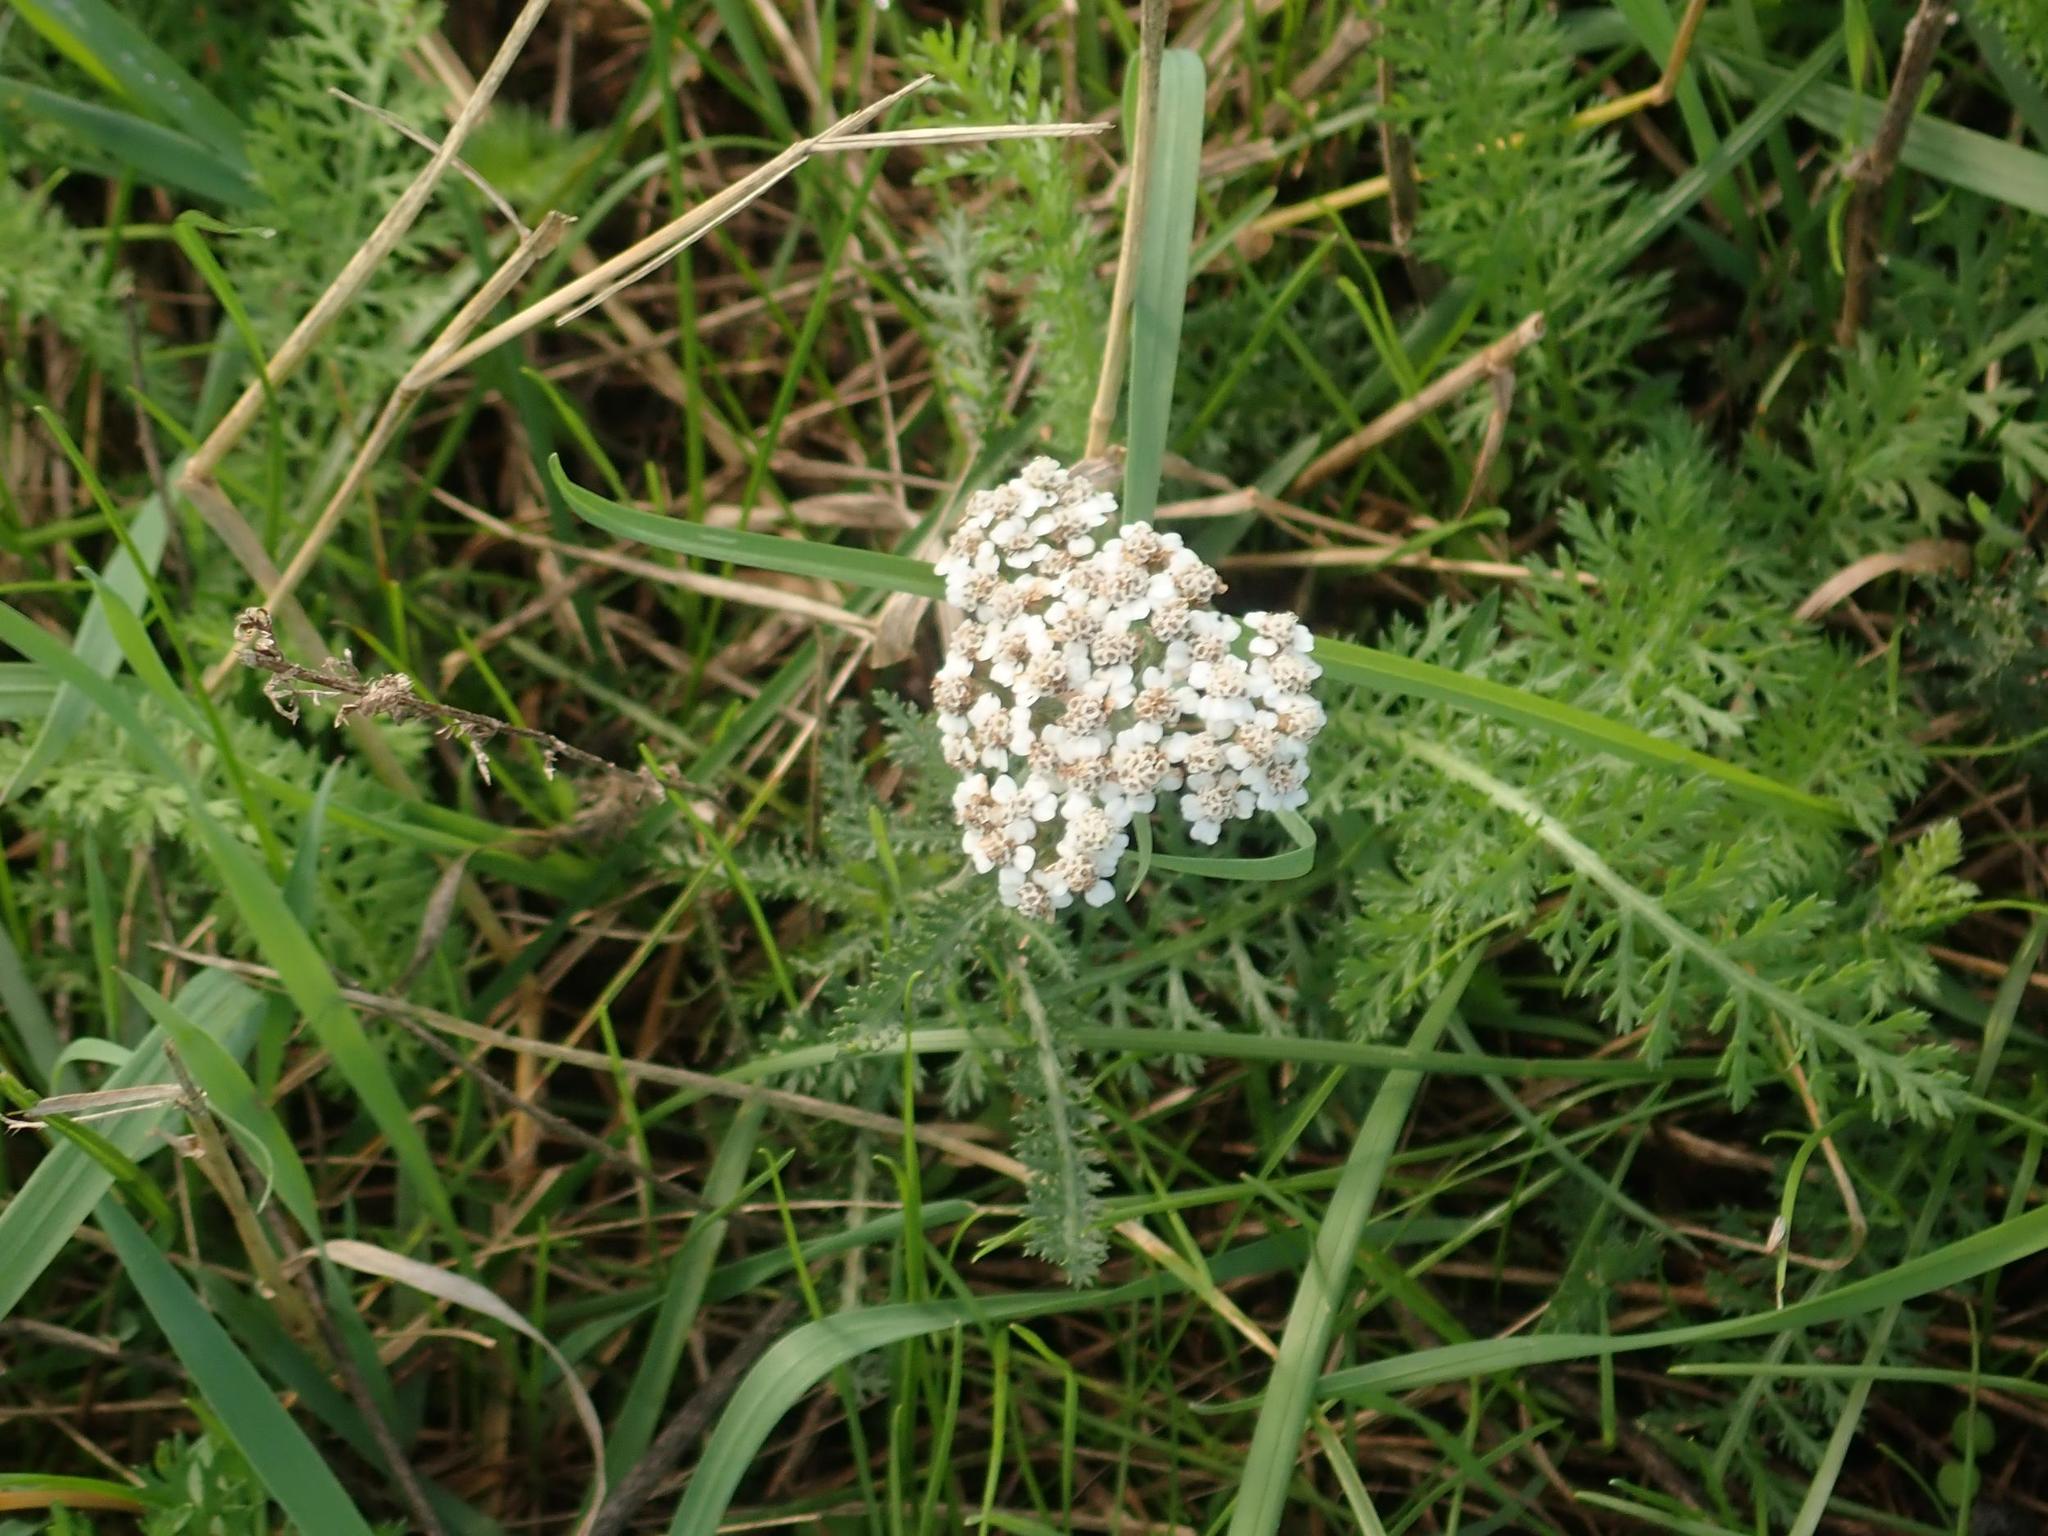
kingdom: Plantae
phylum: Tracheophyta
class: Magnoliopsida
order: Asterales
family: Asteraceae
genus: Achillea
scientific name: Achillea millefolium
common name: Yarrow
